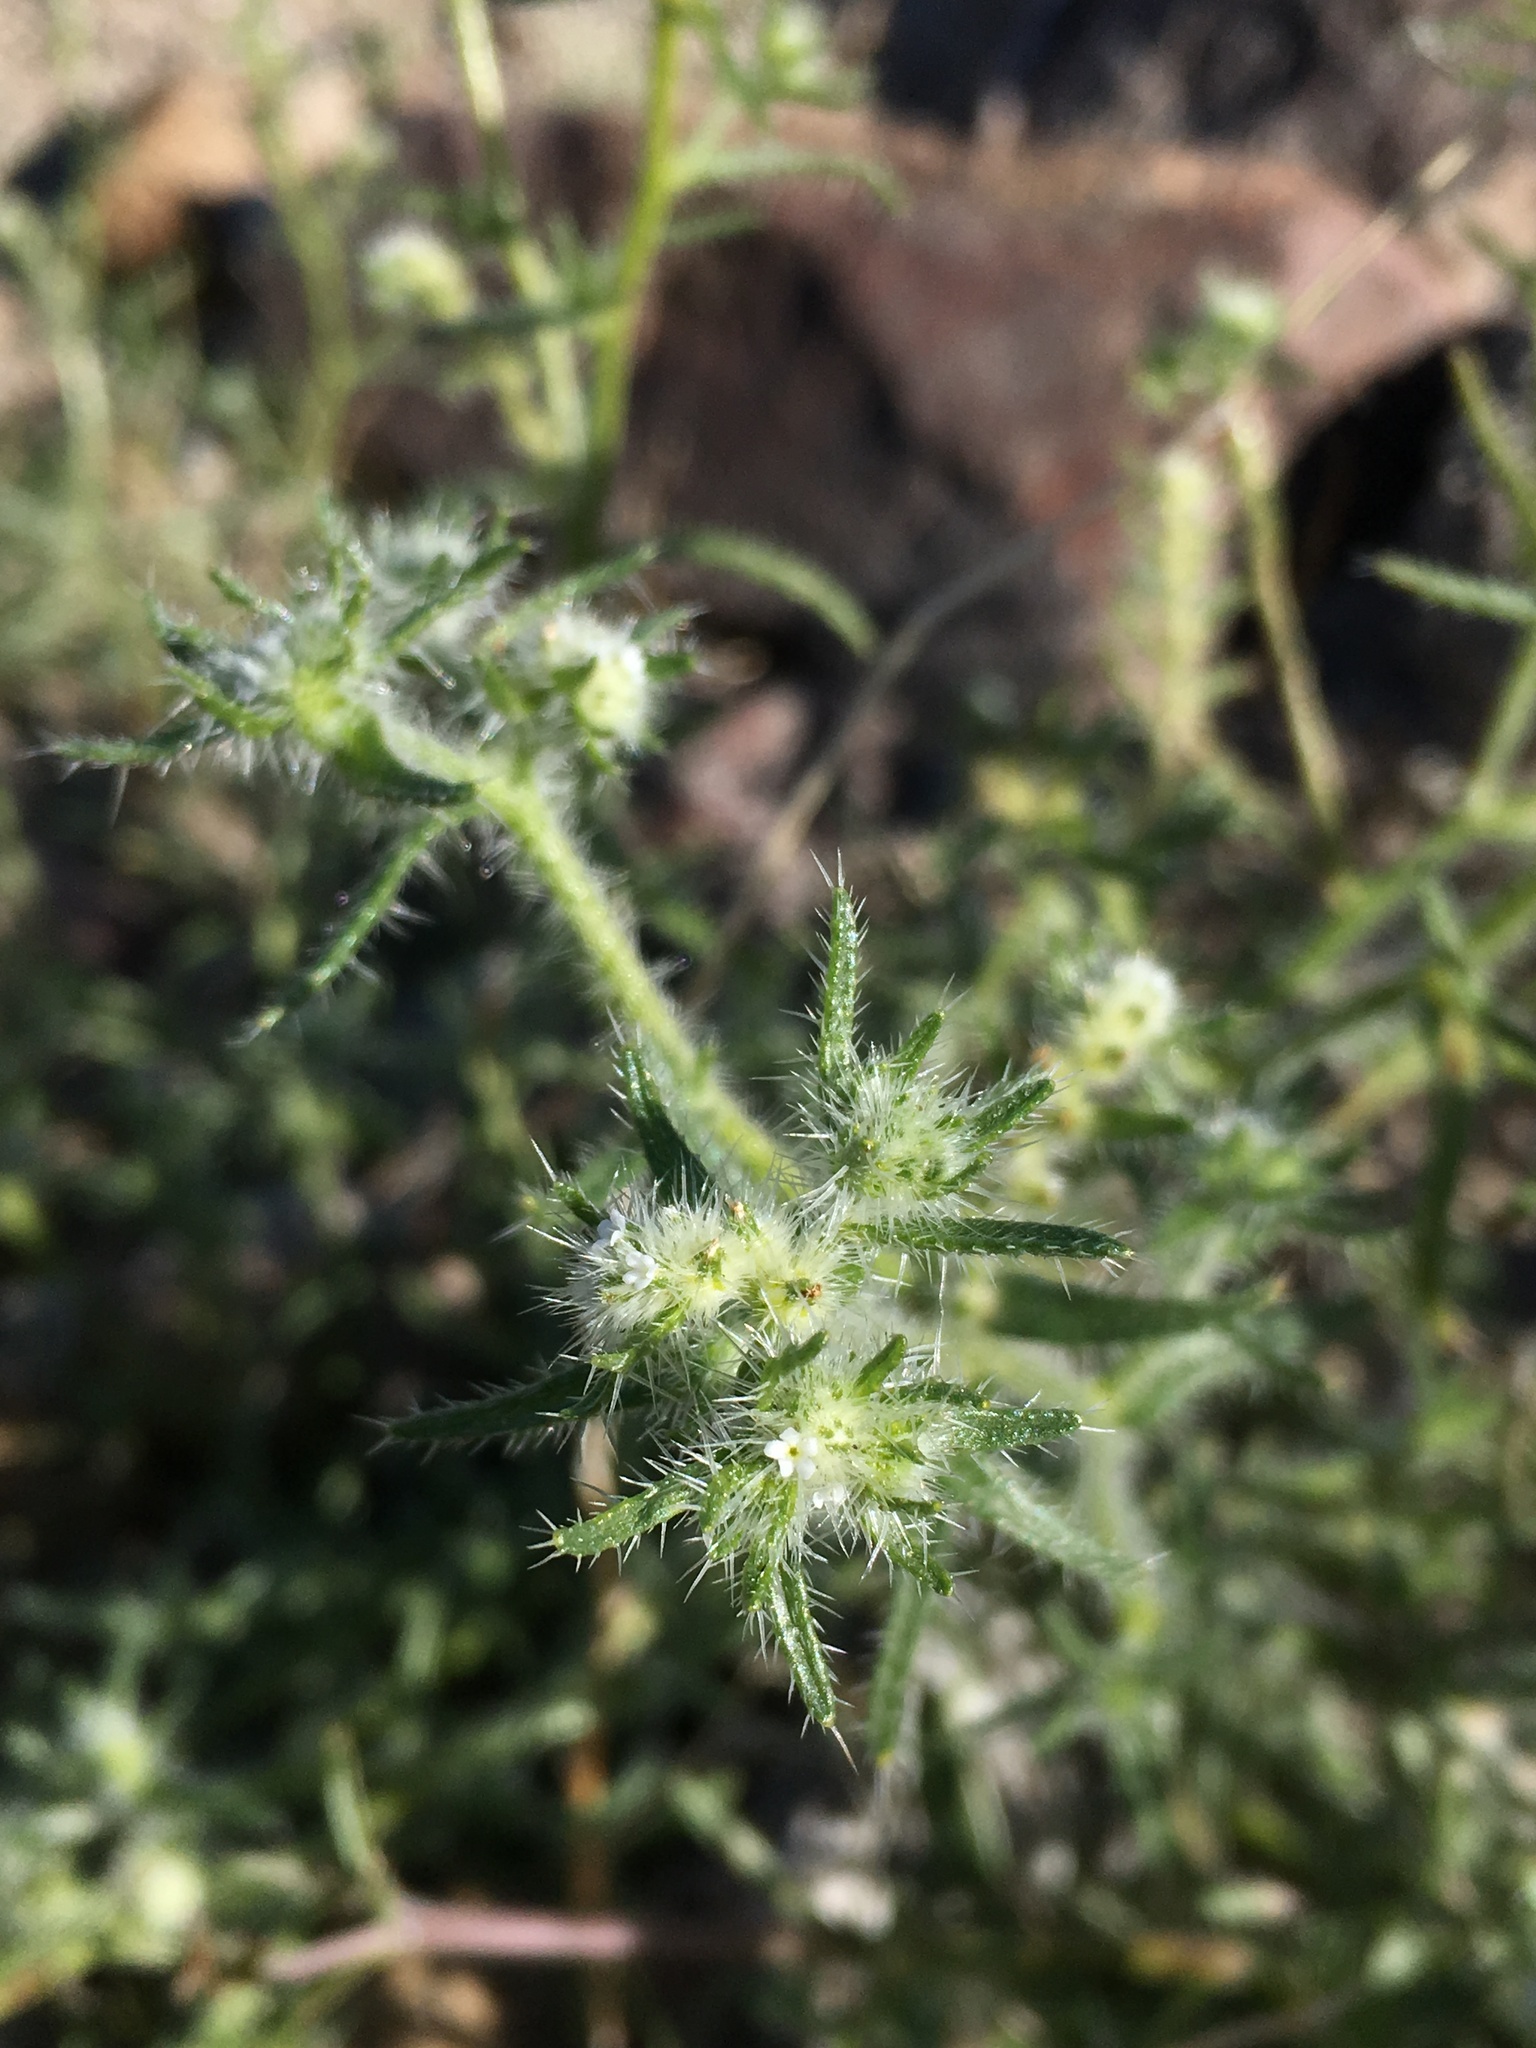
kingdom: Plantae
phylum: Tracheophyta
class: Magnoliopsida
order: Boraginales
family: Boraginaceae
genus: Cryptantha
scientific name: Cryptantha maritima
